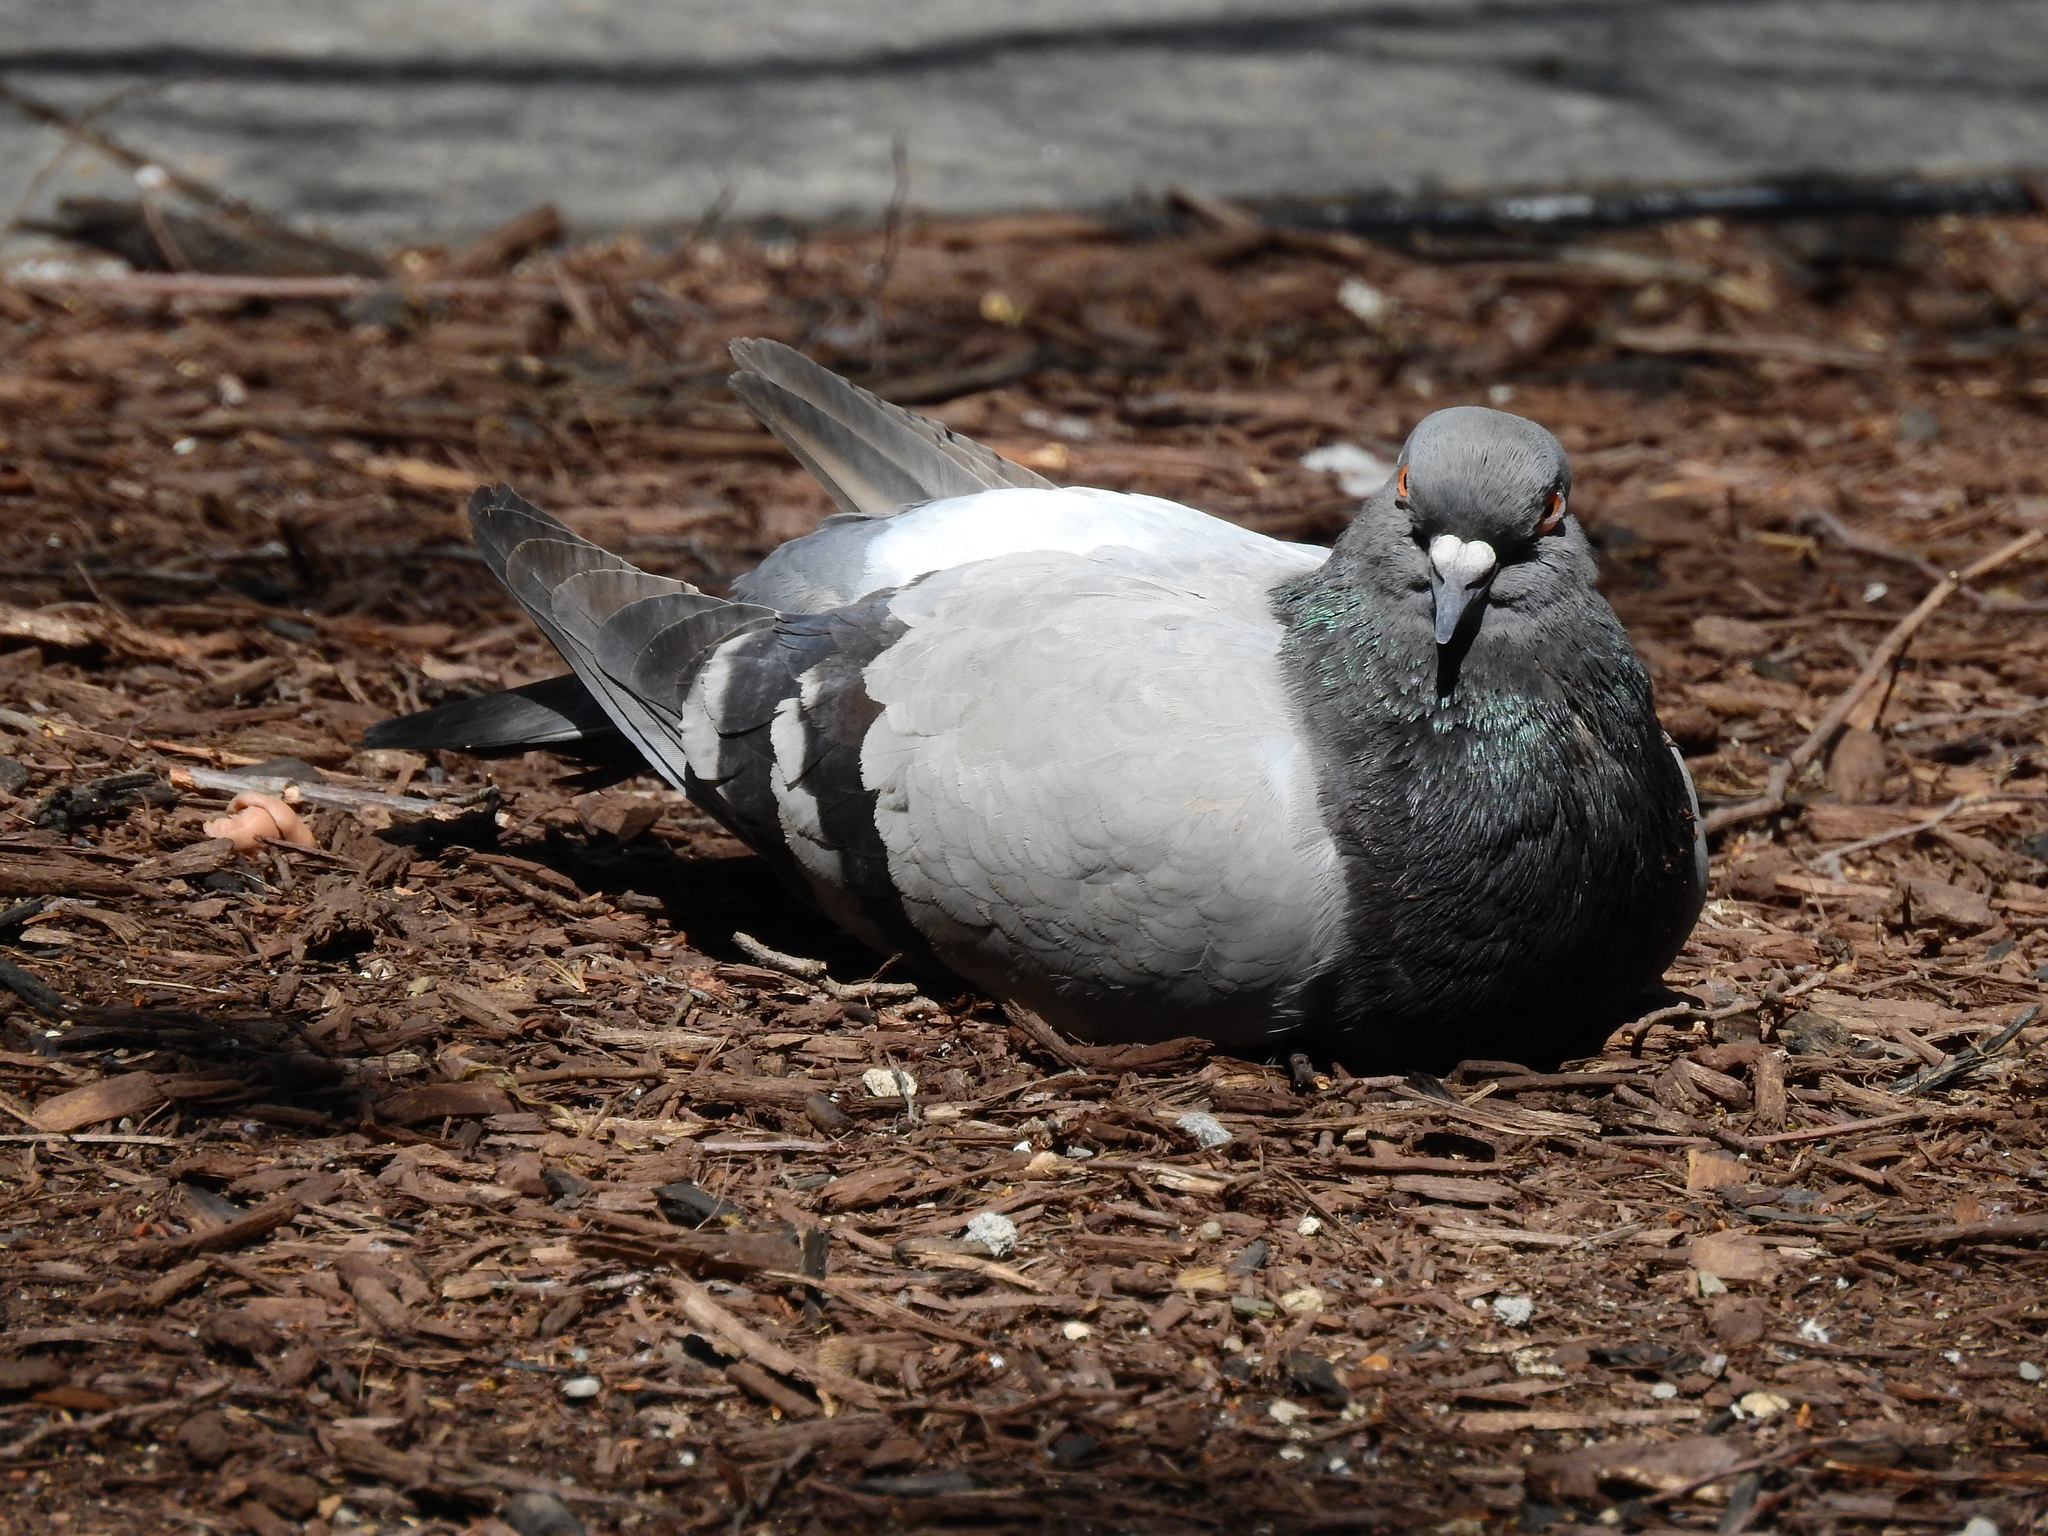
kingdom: Animalia
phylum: Chordata
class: Aves
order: Columbiformes
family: Columbidae
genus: Columba
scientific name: Columba livia
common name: Rock pigeon
